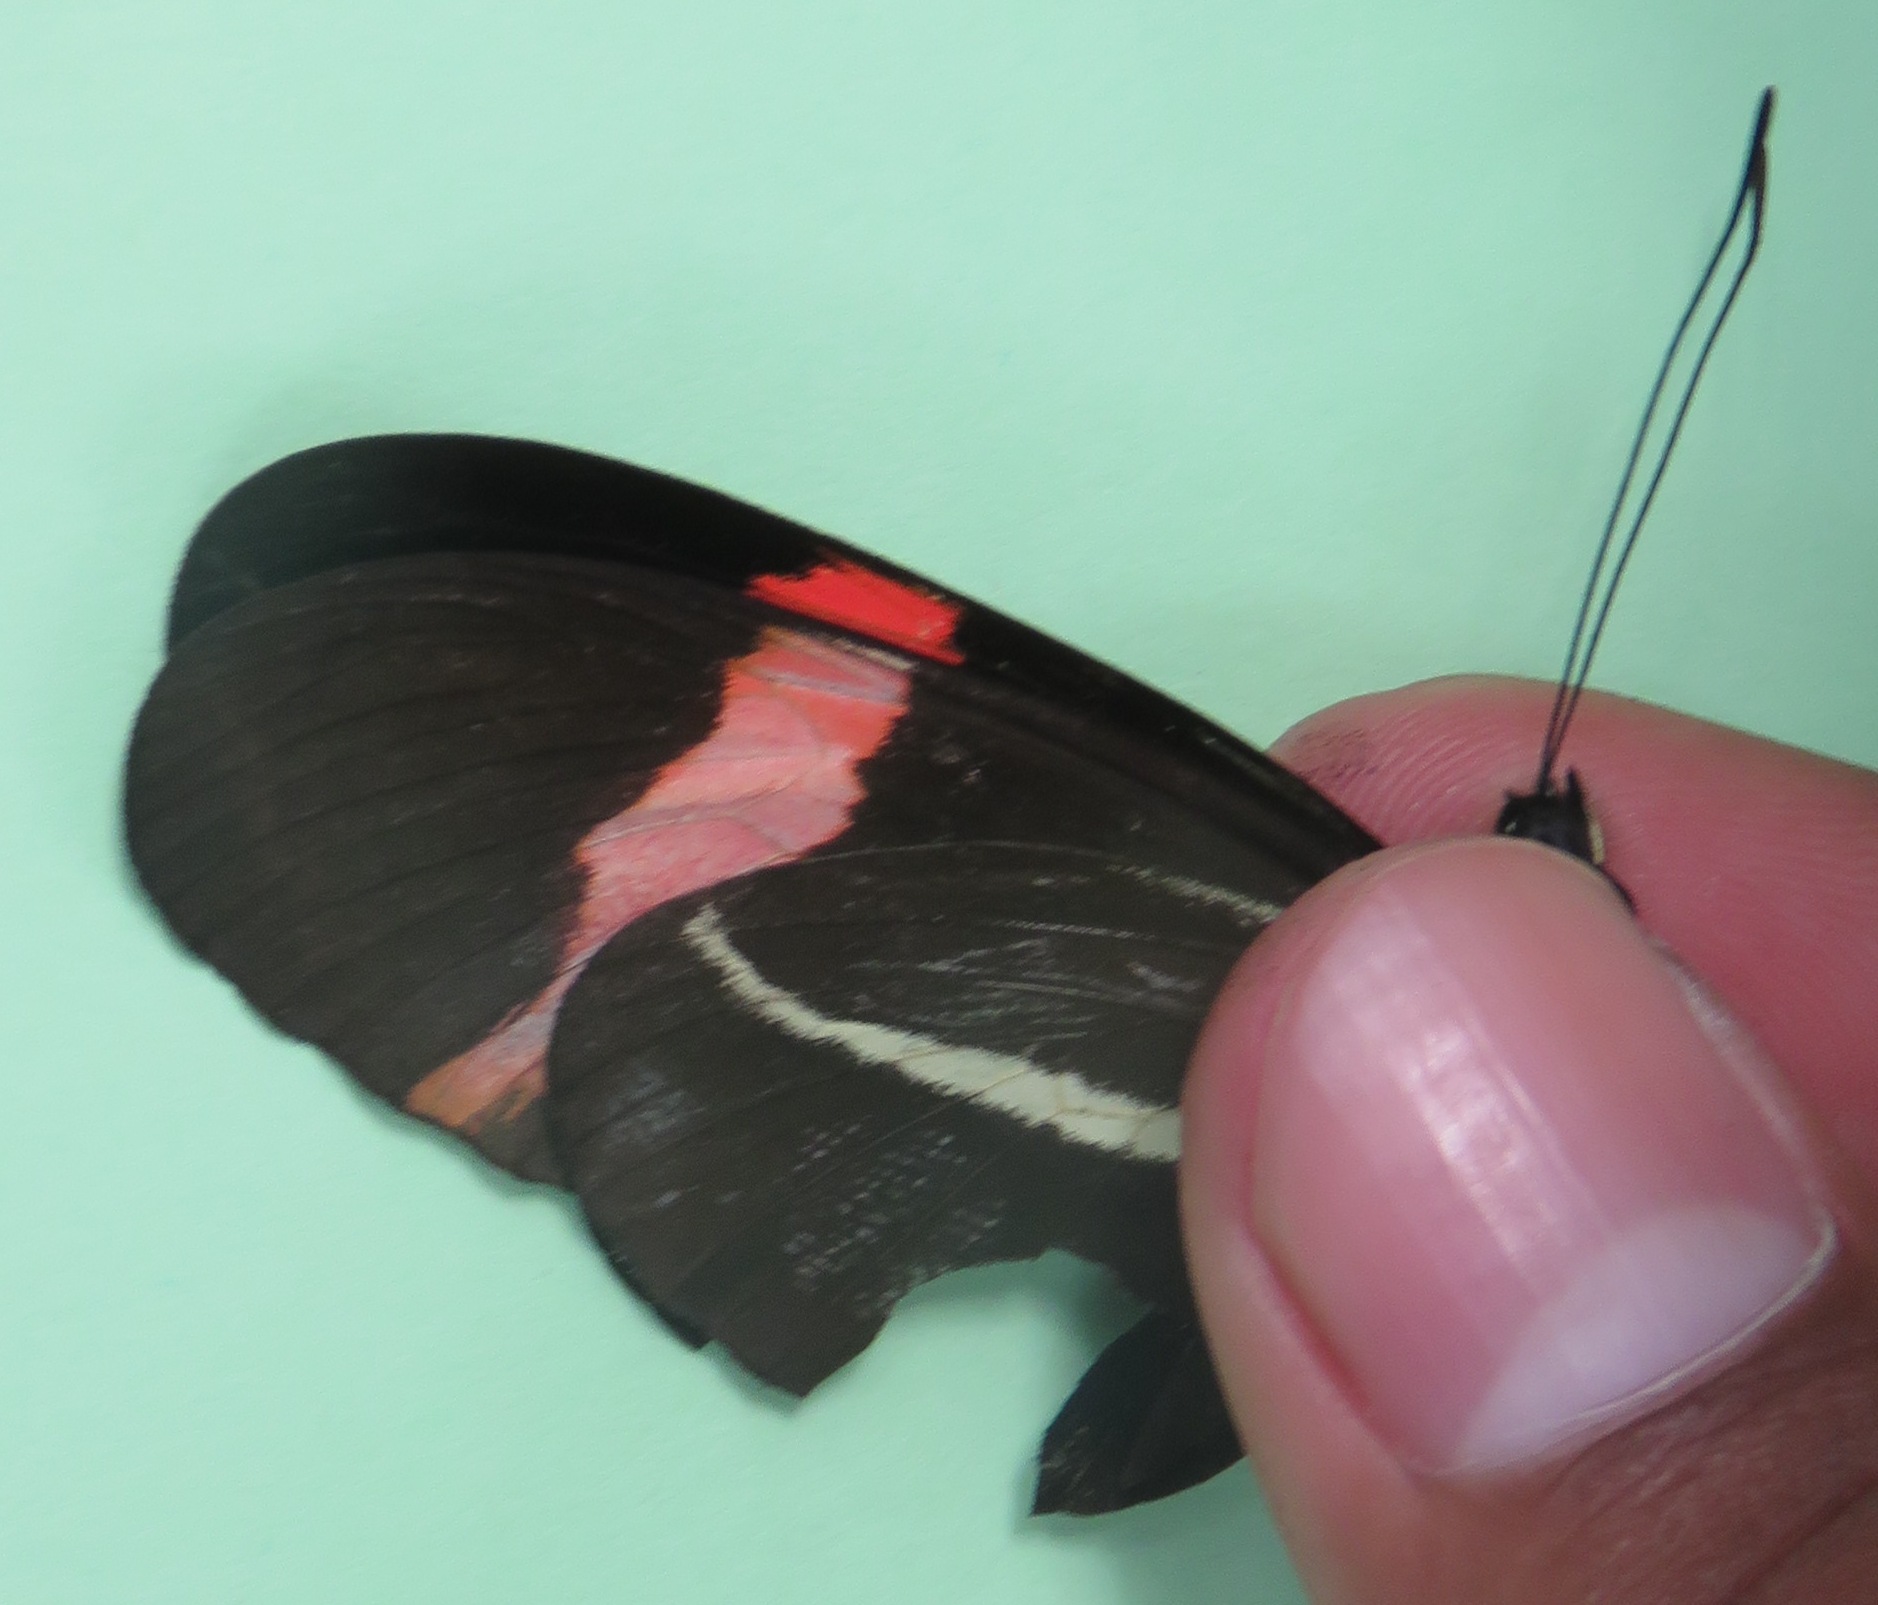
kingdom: Animalia
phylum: Arthropoda
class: Insecta
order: Lepidoptera
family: Nymphalidae
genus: Tirumala
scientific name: Tirumala petiverana
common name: Blue monarch
